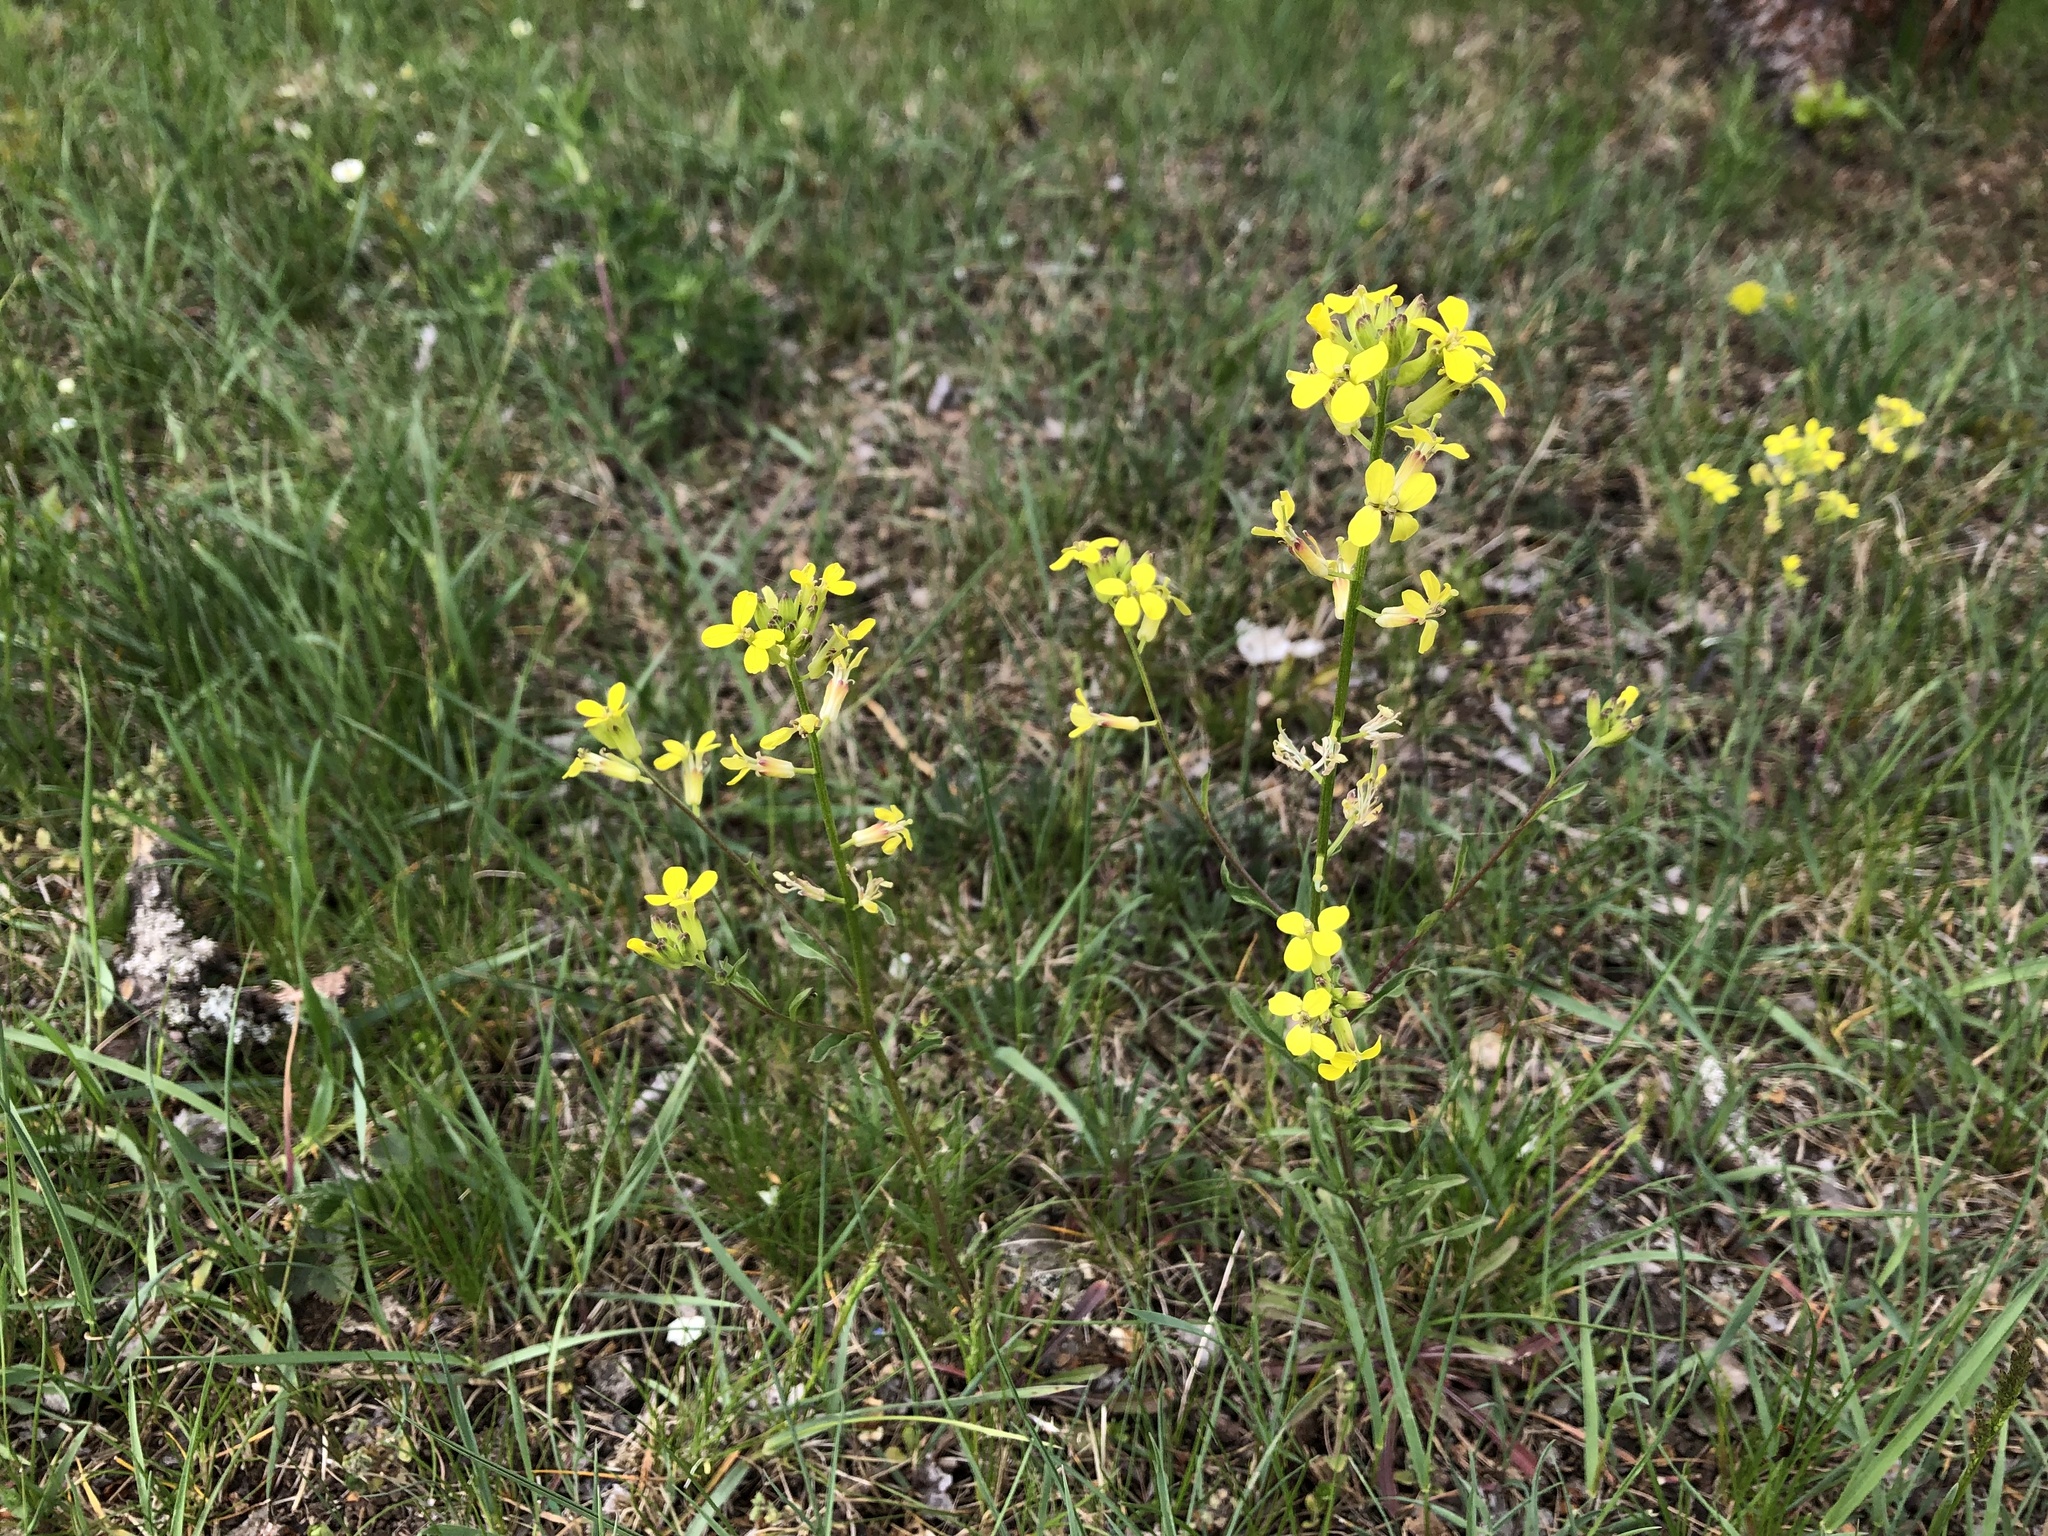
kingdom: Plantae
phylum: Tracheophyta
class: Magnoliopsida
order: Brassicales
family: Brassicaceae
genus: Erysimum
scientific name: Erysimum crepidifolium
